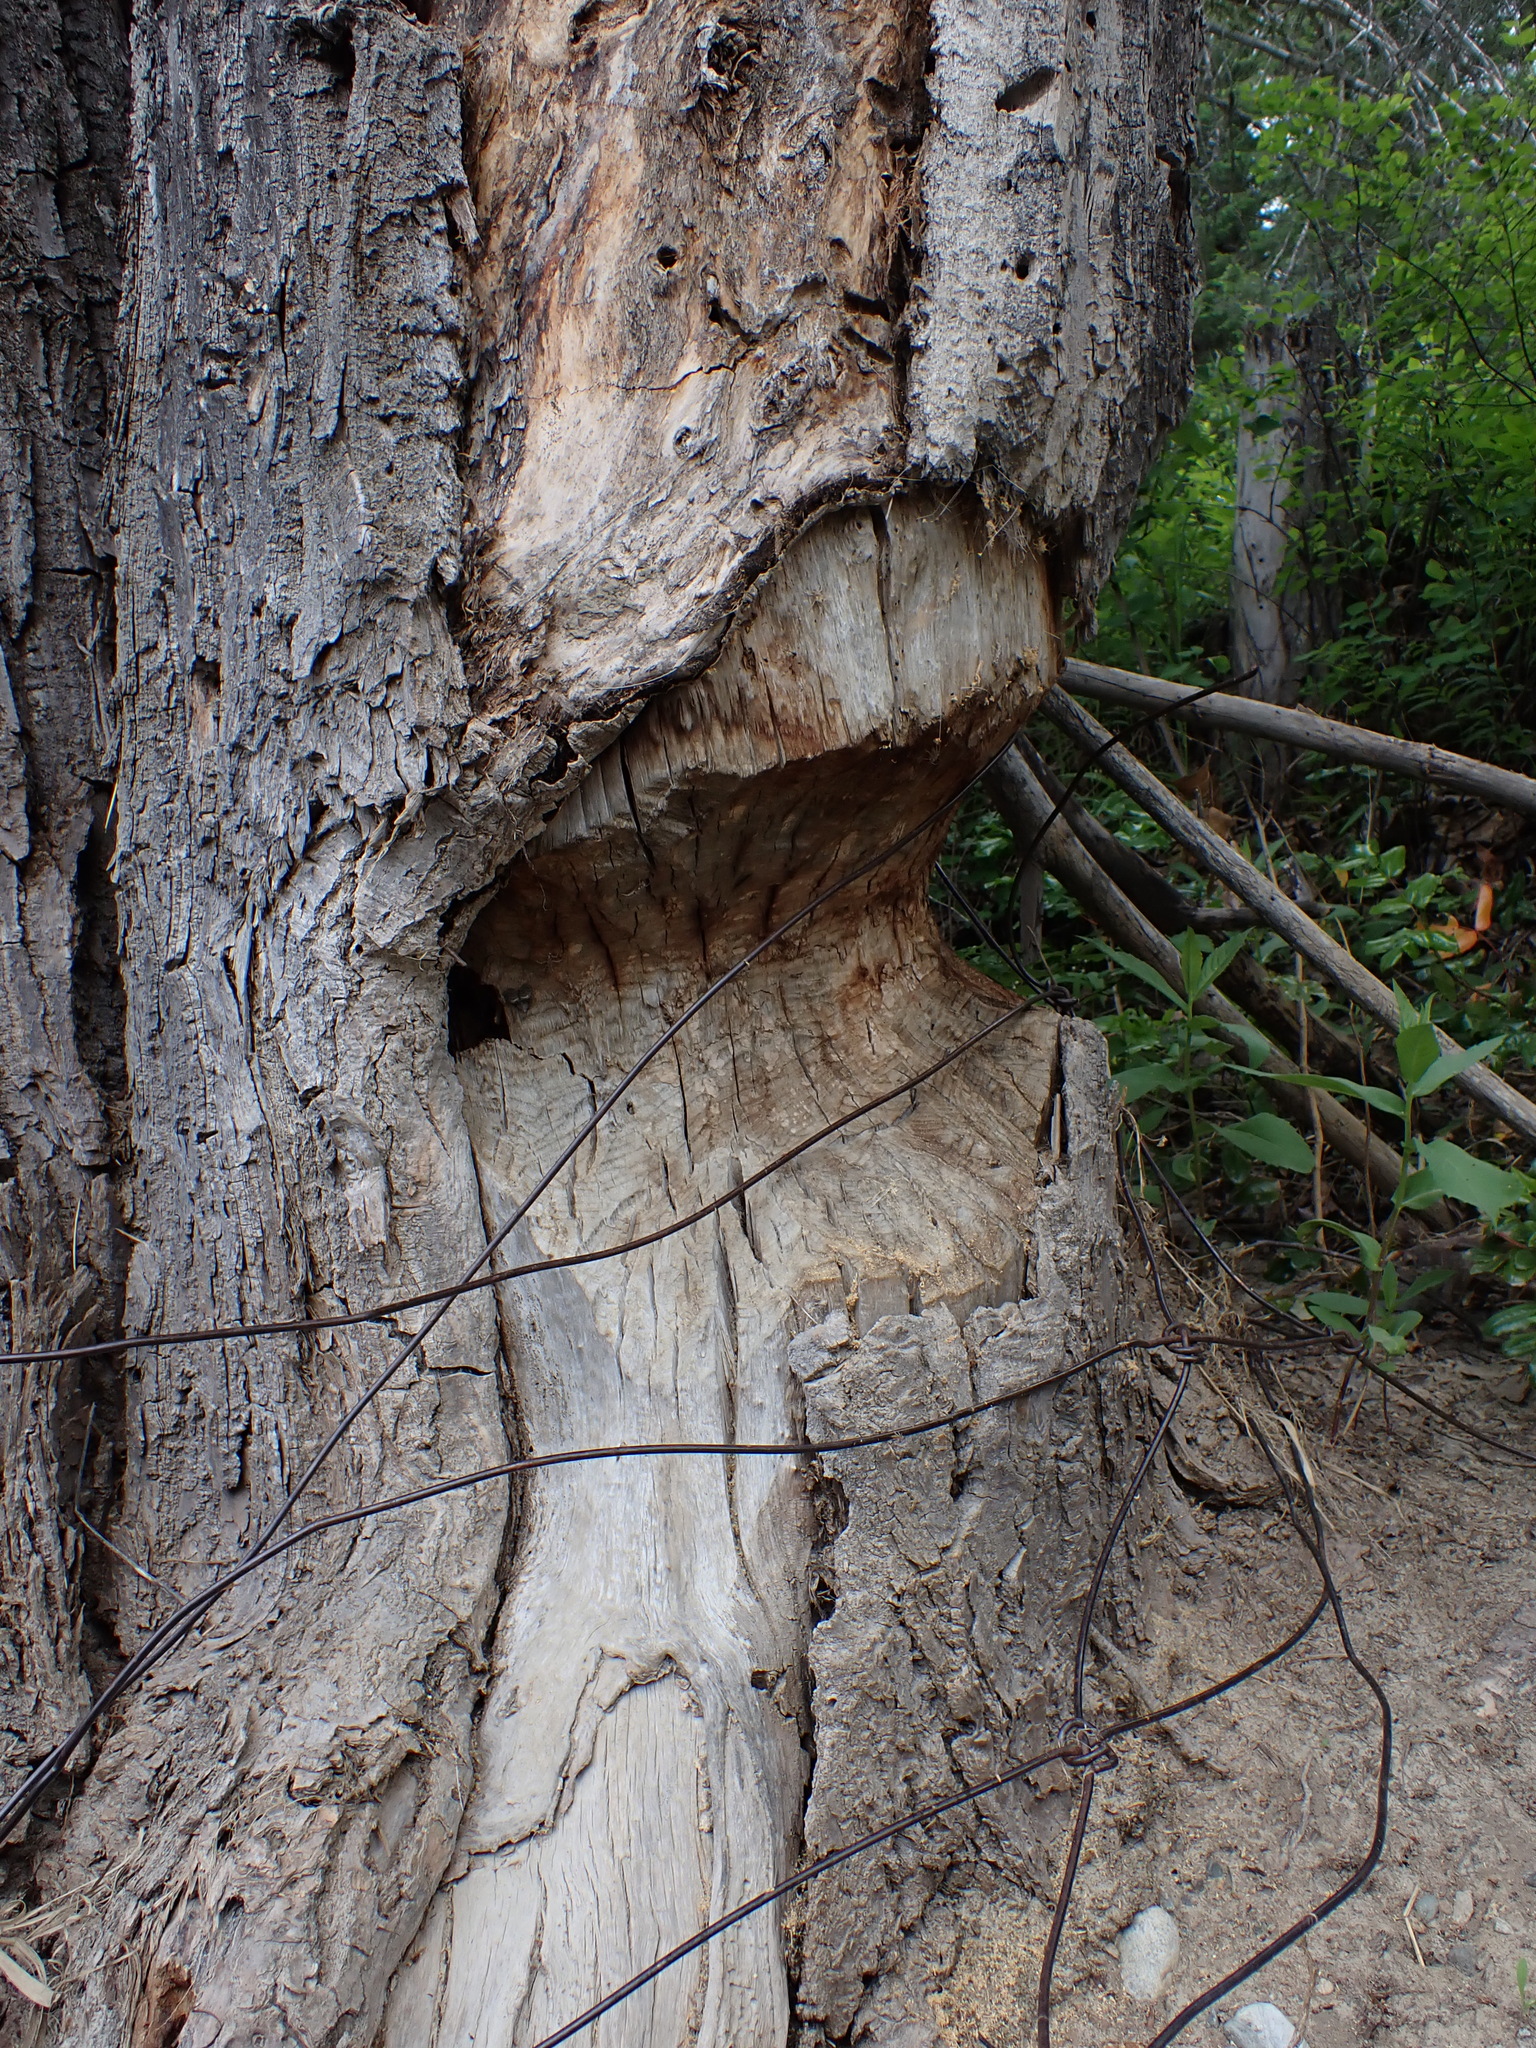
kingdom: Animalia
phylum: Chordata
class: Mammalia
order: Rodentia
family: Castoridae
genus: Castor
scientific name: Castor canadensis
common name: American beaver
